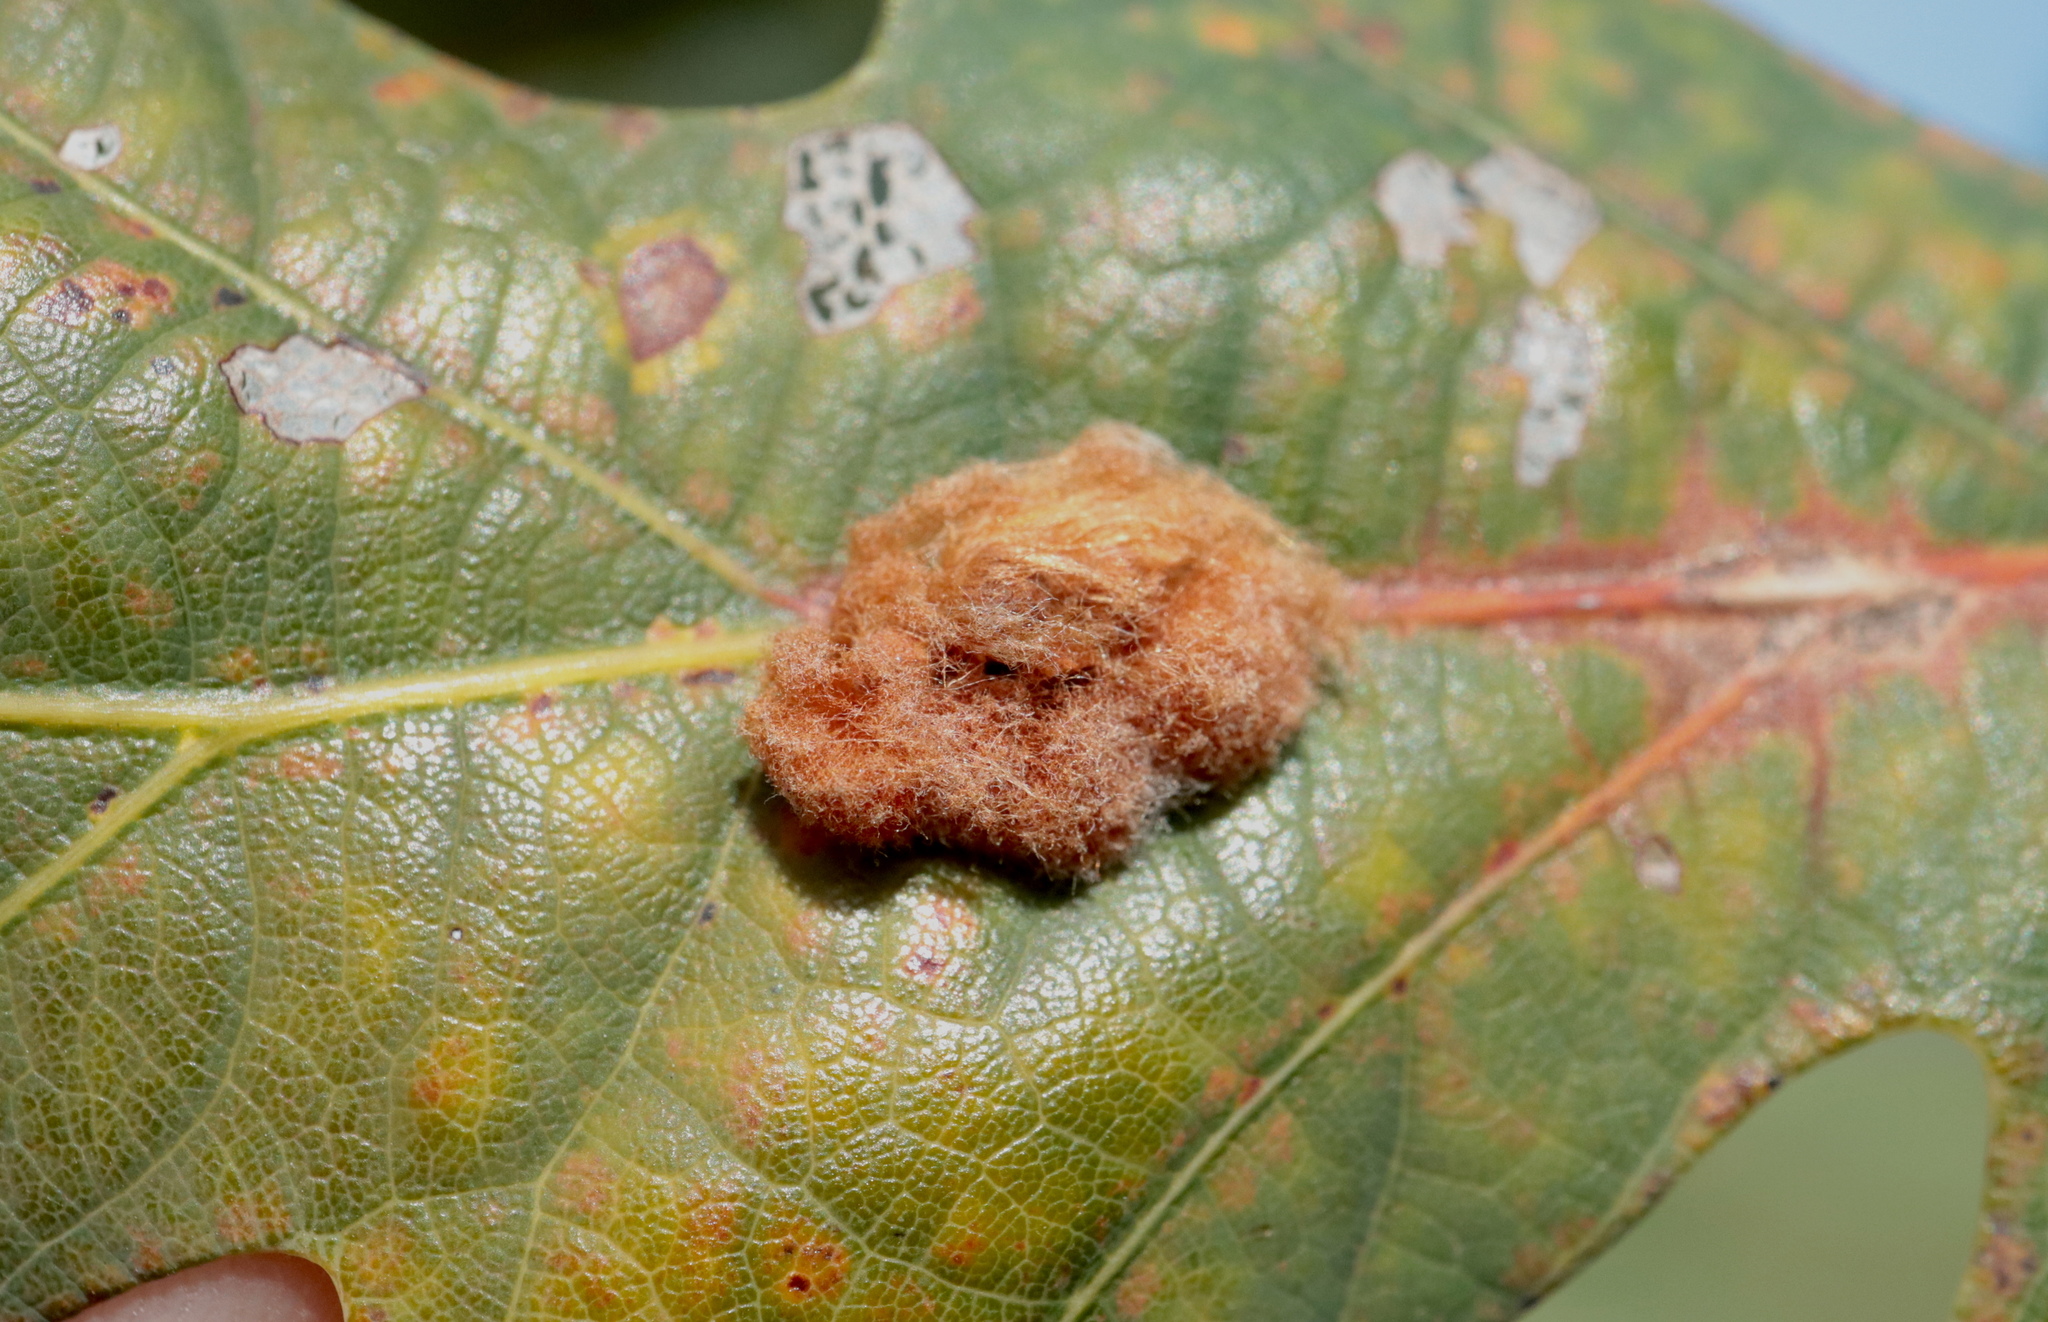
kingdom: Animalia
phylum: Arthropoda
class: Insecta
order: Hymenoptera
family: Cynipidae
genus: Andricus
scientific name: Andricus quercusflocci
